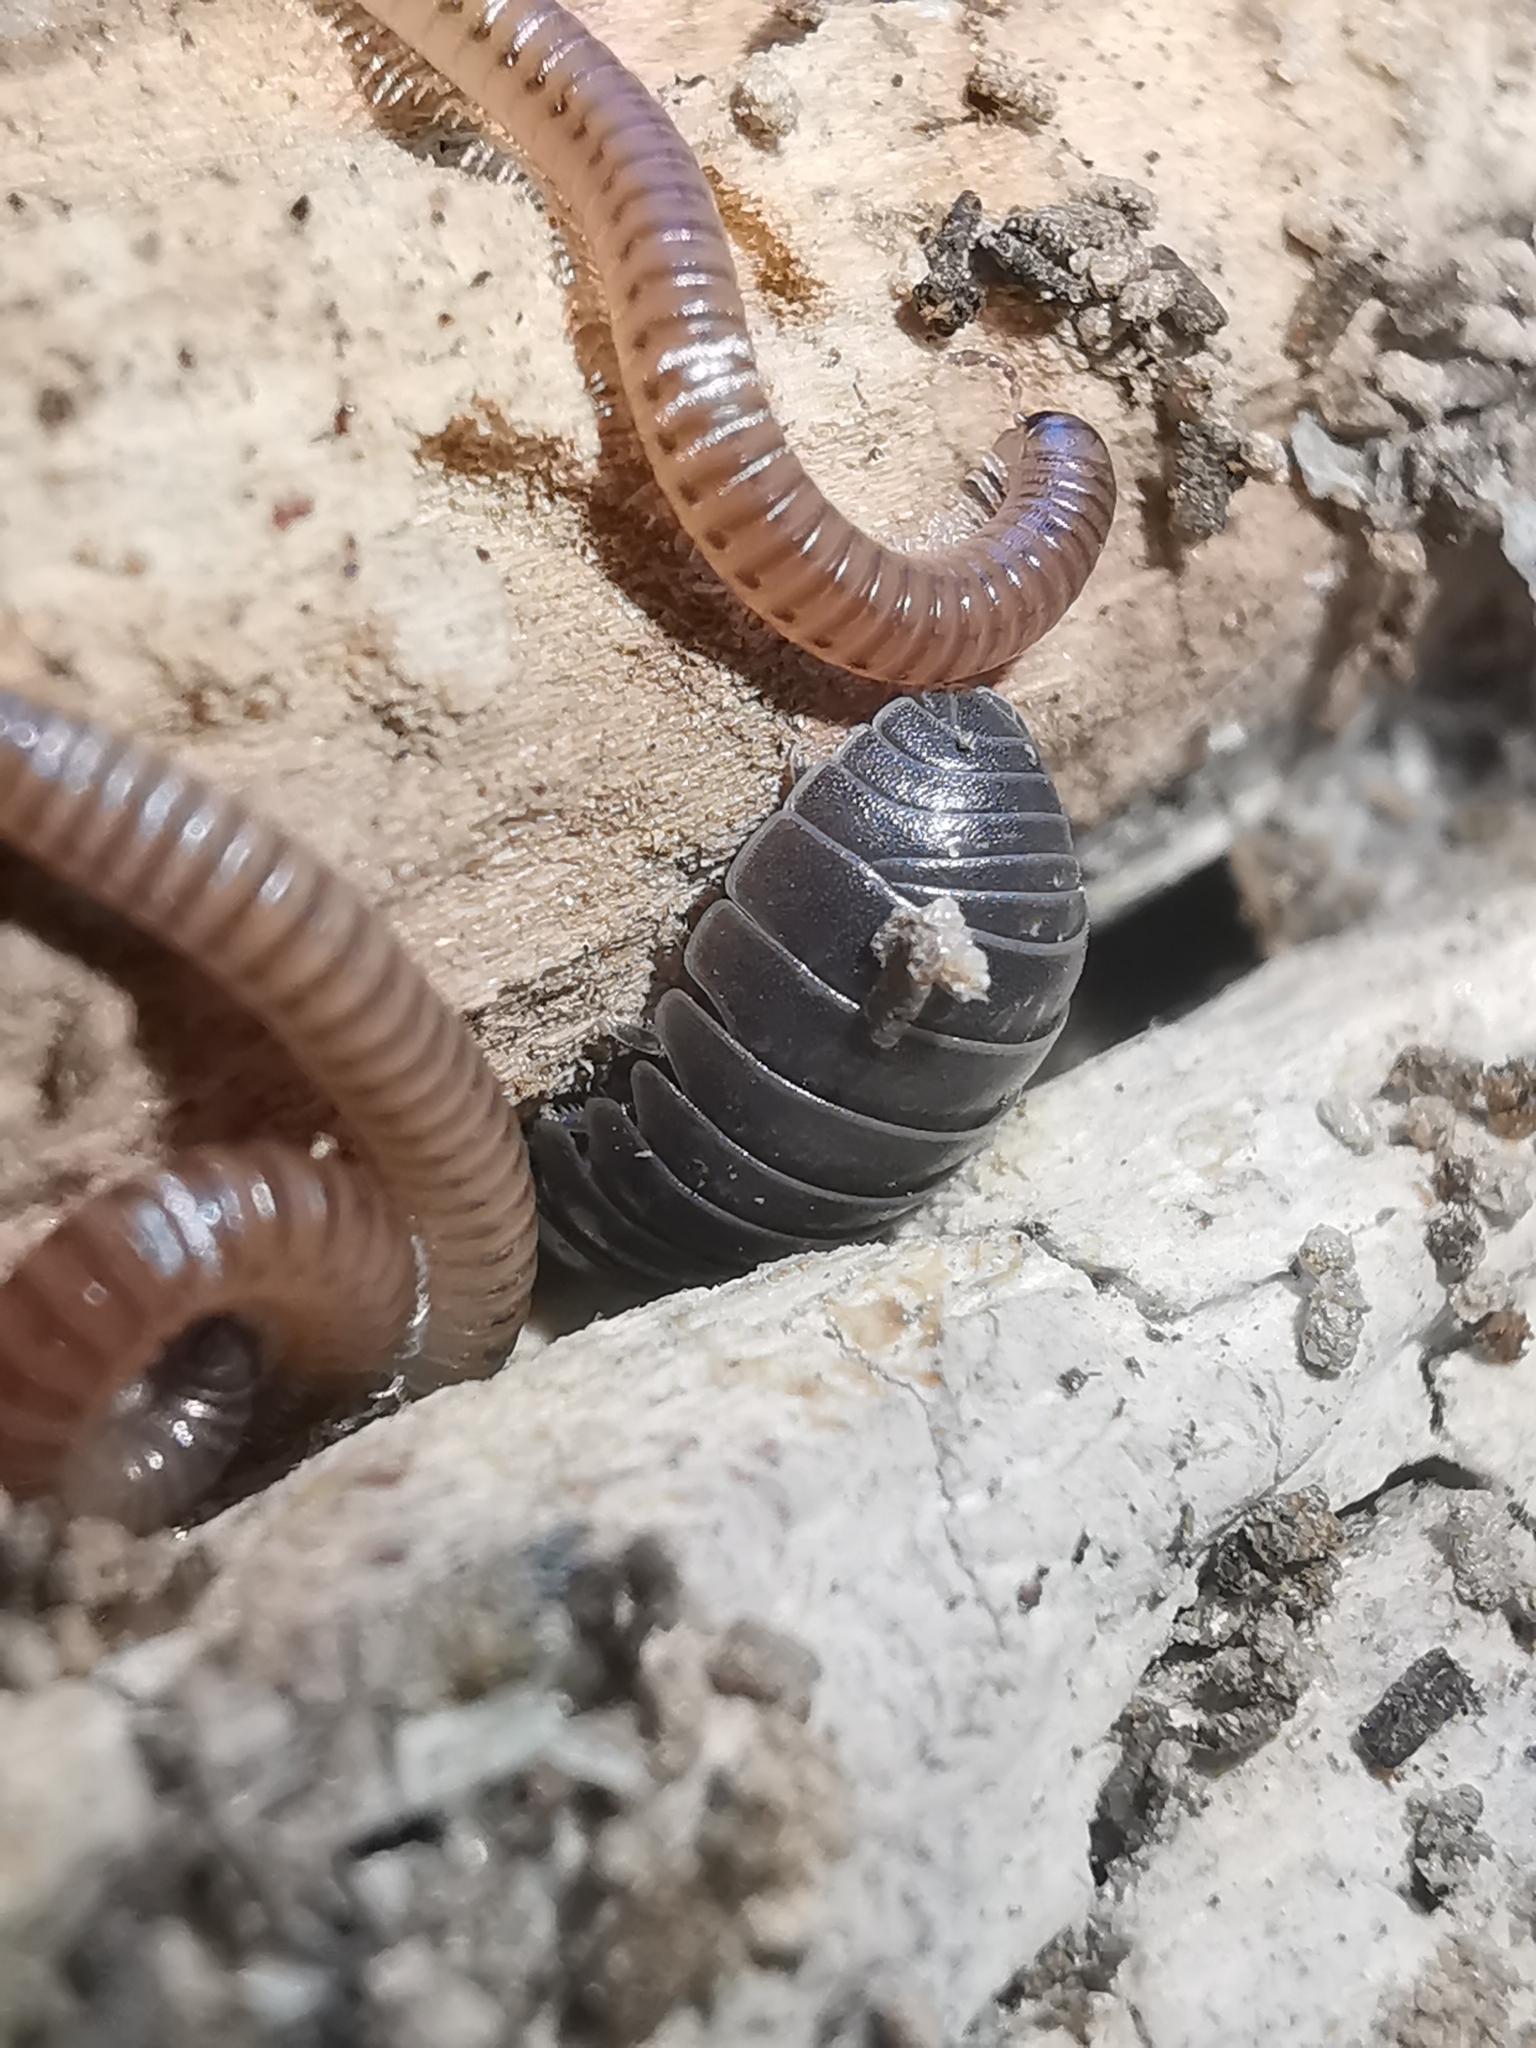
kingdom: Animalia
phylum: Arthropoda
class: Malacostraca
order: Isopoda
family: Armadillidiidae
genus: Armadillidium
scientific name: Armadillidium vulgare
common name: Common pill woodlouse
